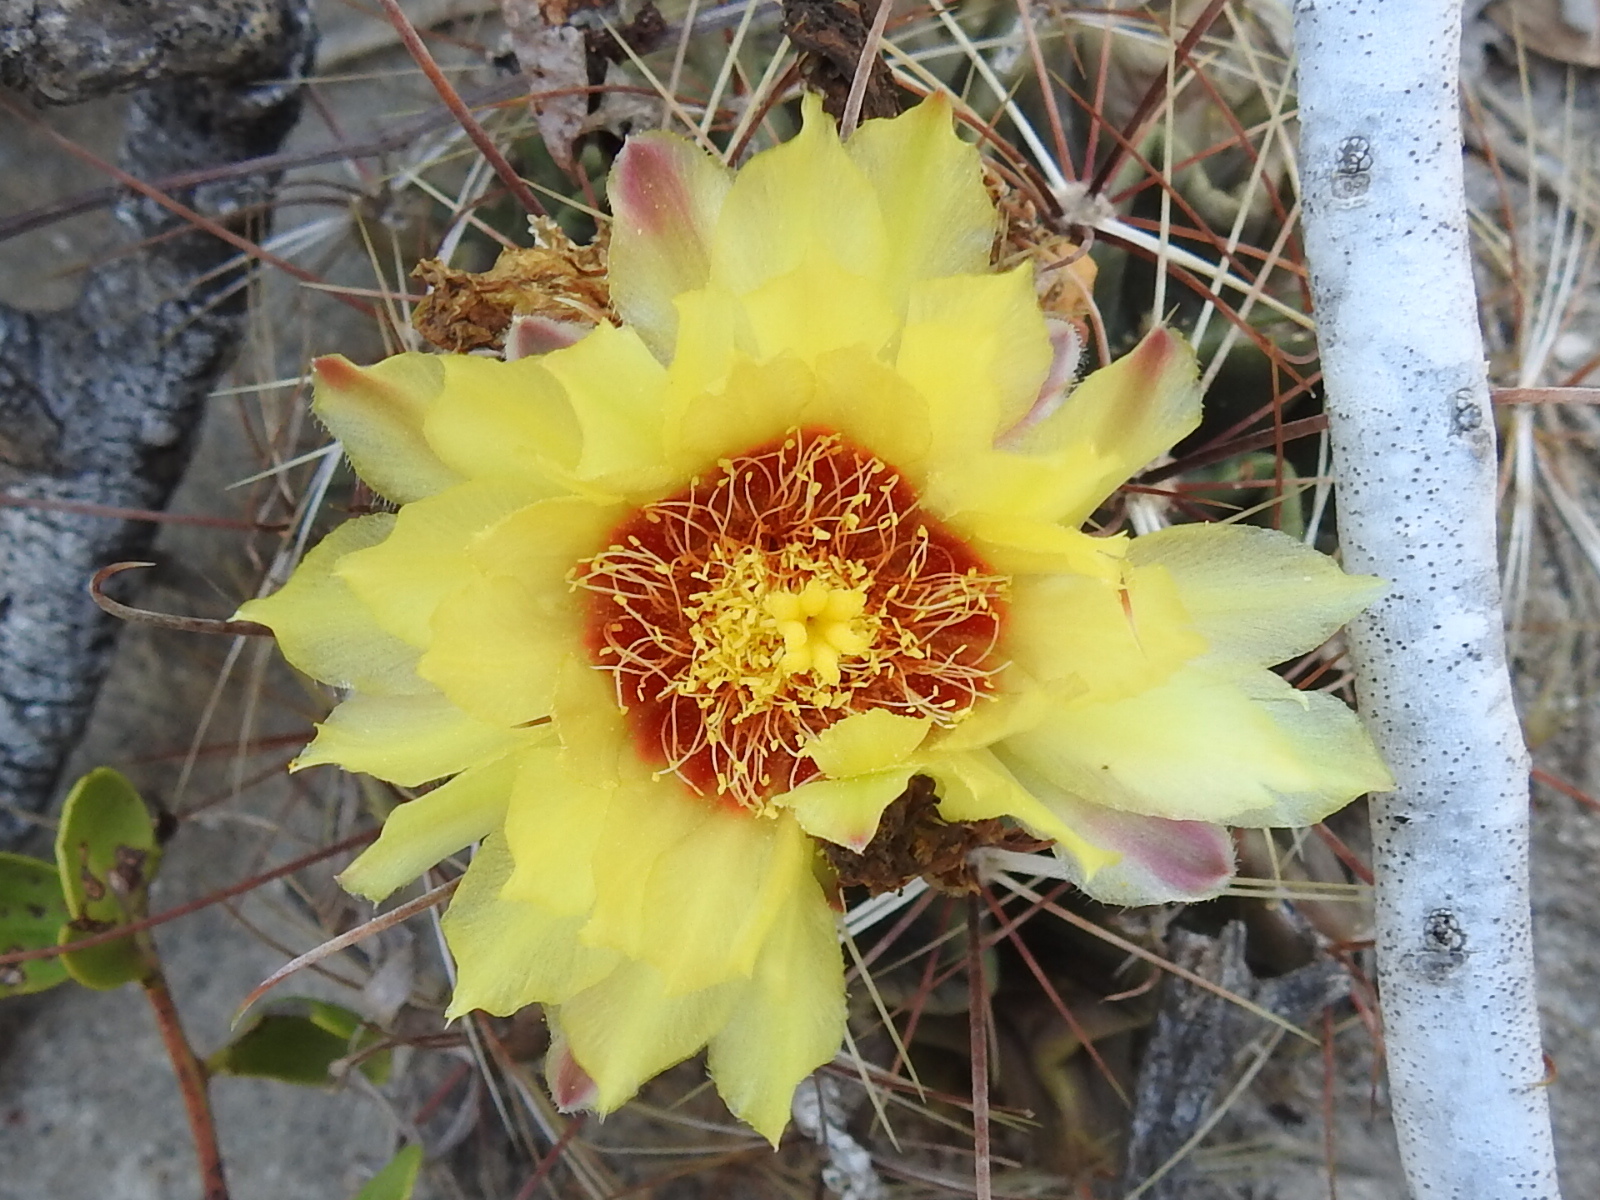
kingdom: Plantae
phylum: Tracheophyta
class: Magnoliopsida
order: Caryophyllales
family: Cactaceae
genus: Thelocactus
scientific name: Thelocactus setispinus
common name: Miniature barrel cactus
